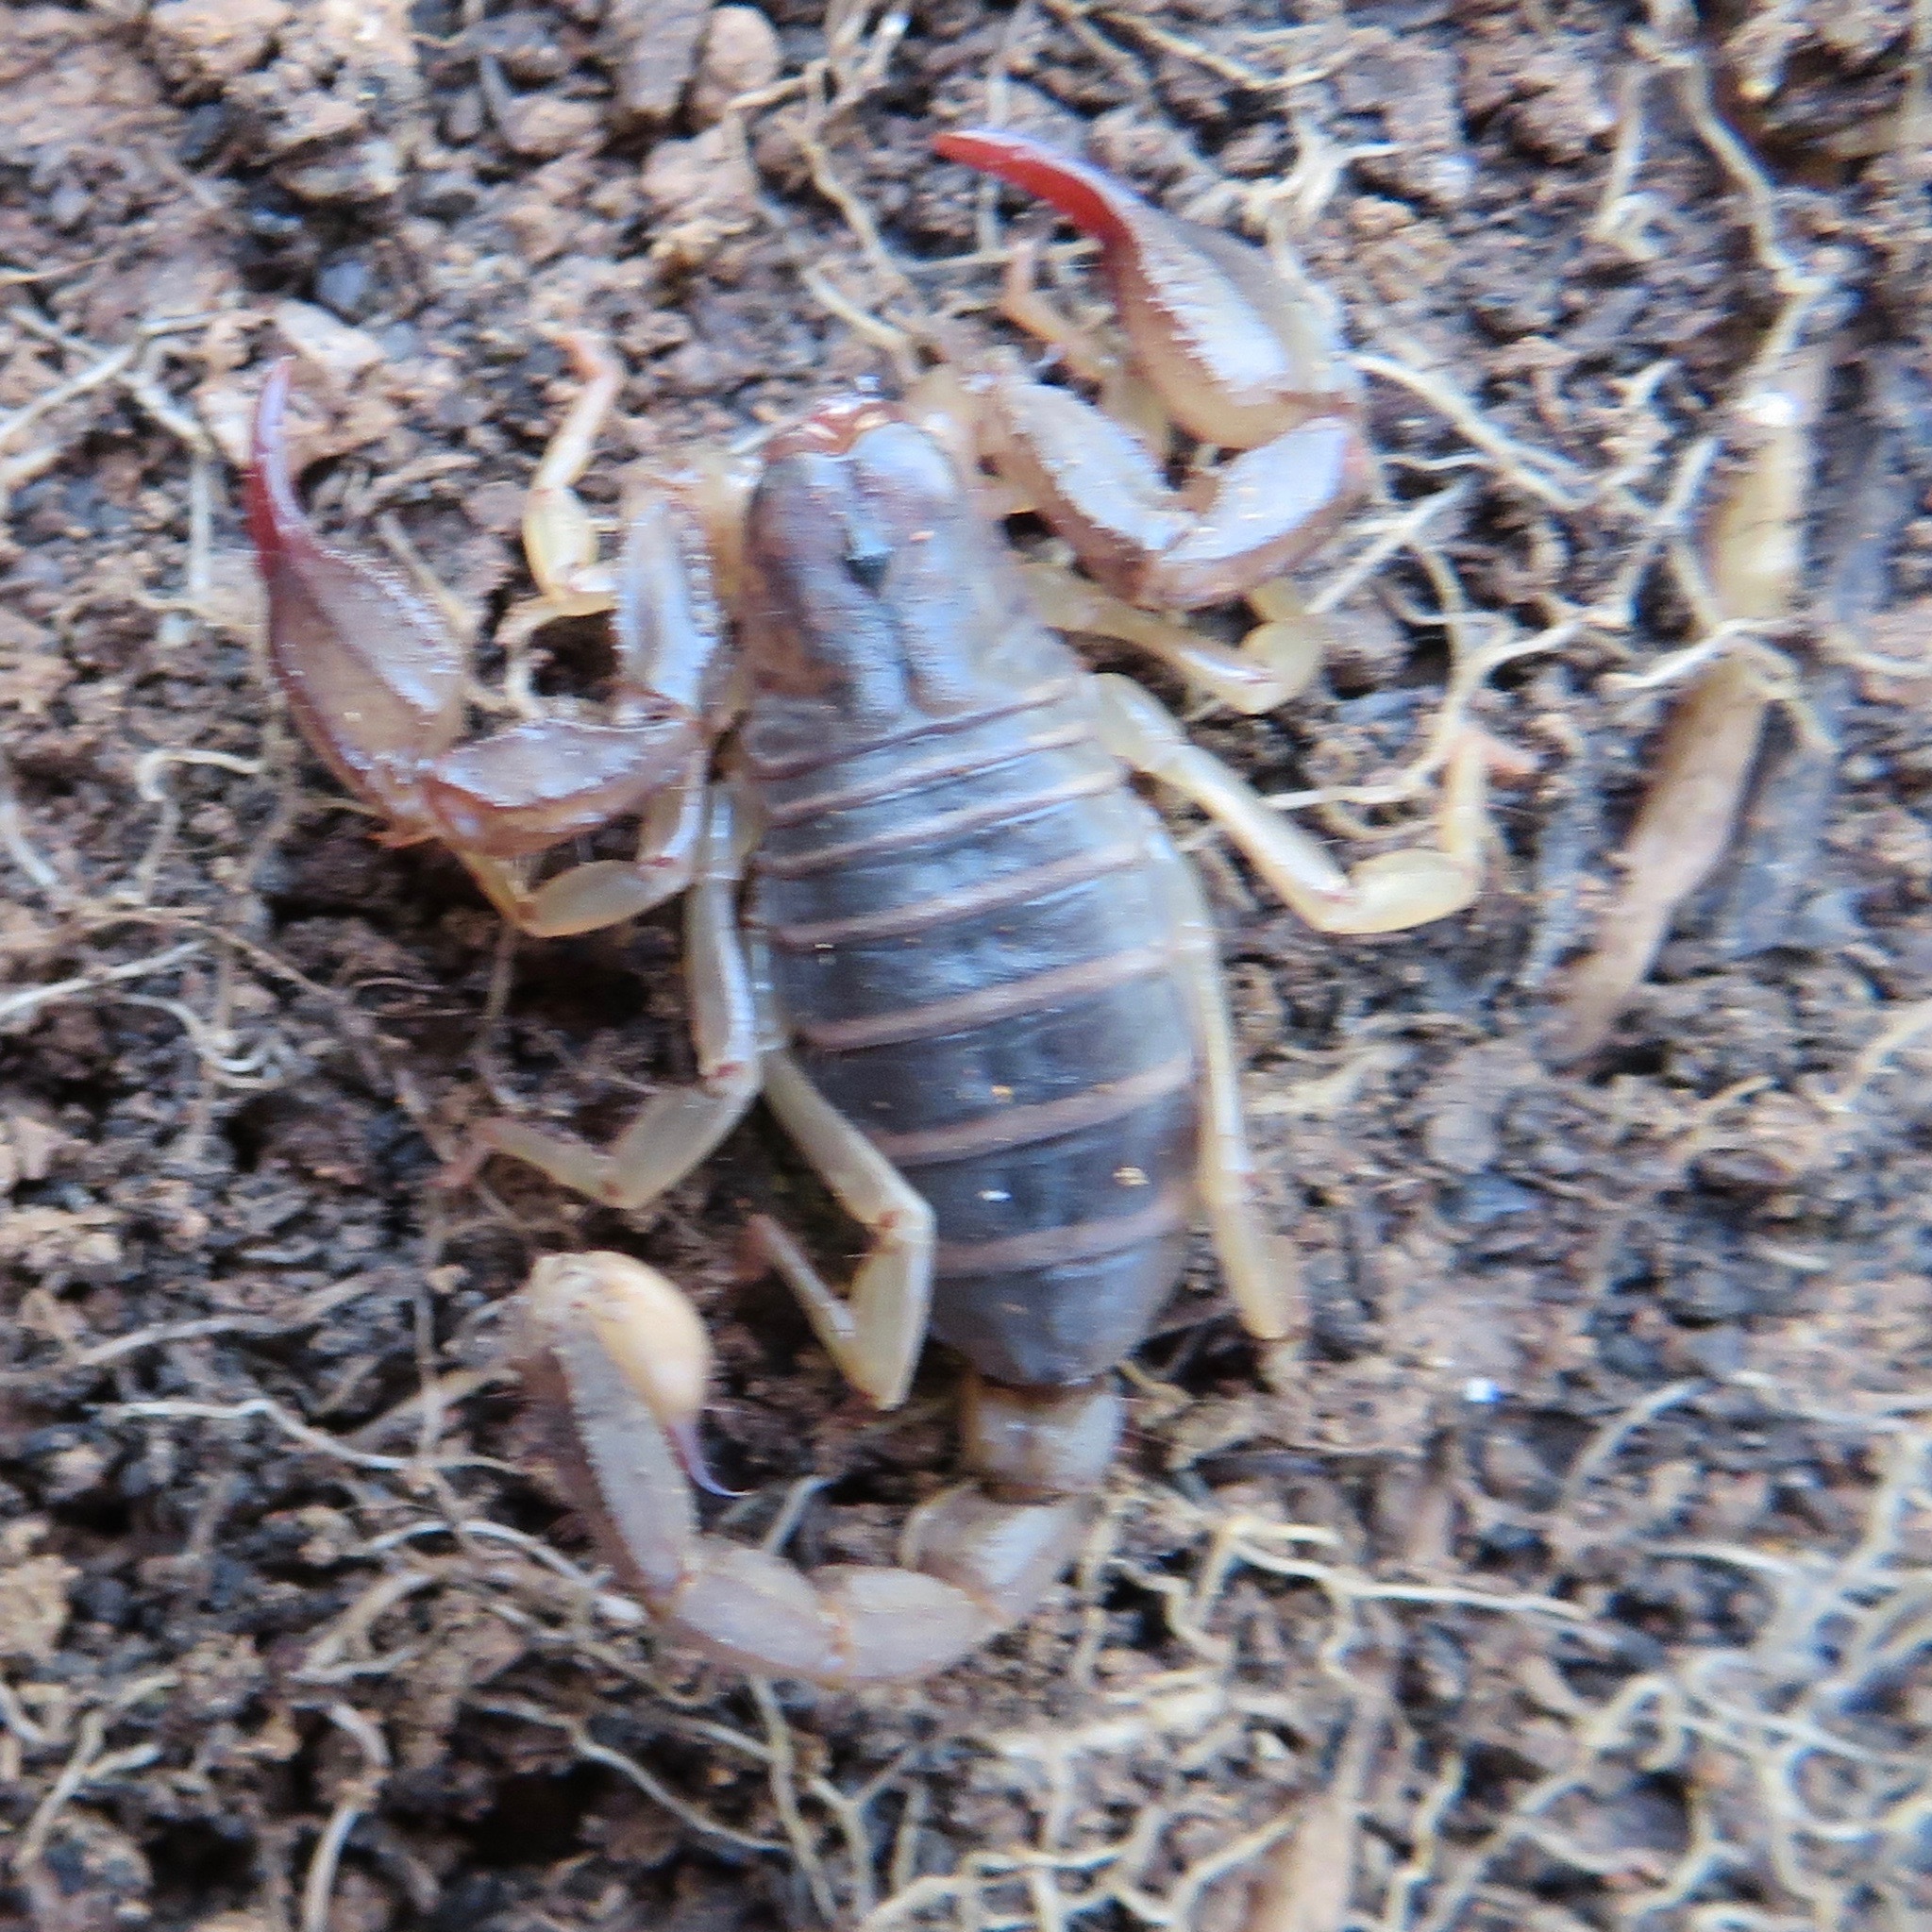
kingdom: Animalia
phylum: Arthropoda
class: Arachnida
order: Scorpiones
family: Chactidae
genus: Uroctonus
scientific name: Uroctonus mordax
